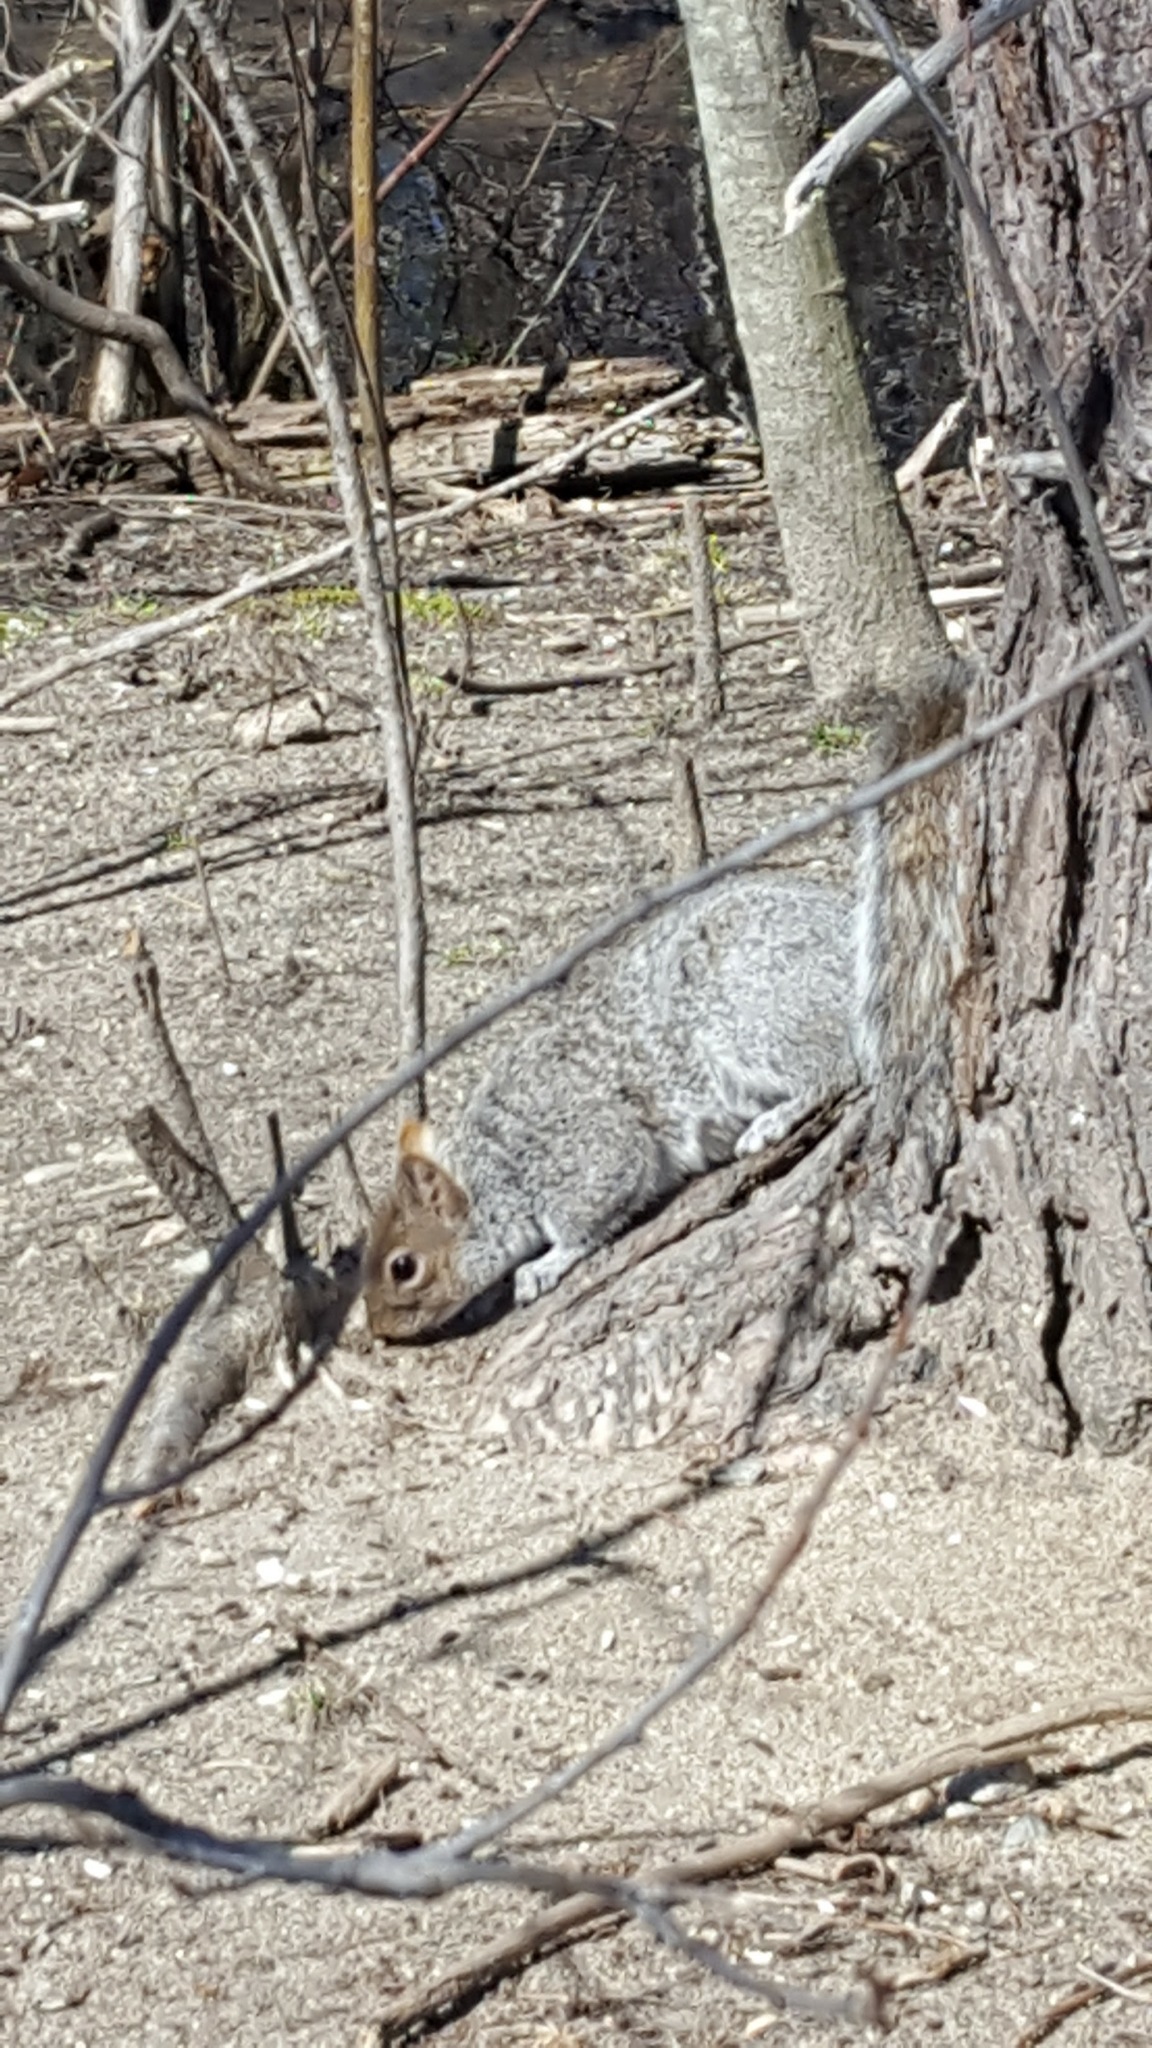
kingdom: Animalia
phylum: Chordata
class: Mammalia
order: Rodentia
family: Sciuridae
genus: Sciurus
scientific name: Sciurus carolinensis
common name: Eastern gray squirrel
